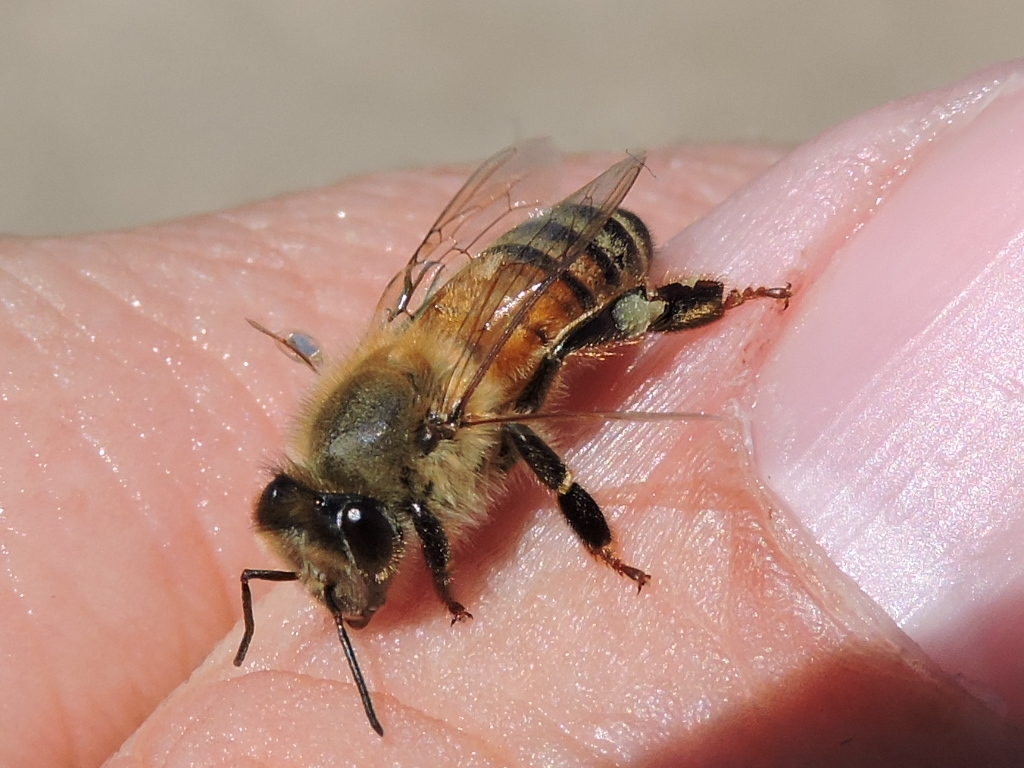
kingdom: Animalia
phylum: Arthropoda
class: Insecta
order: Hymenoptera
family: Apidae
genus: Apis
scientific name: Apis mellifera
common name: Honey bee
